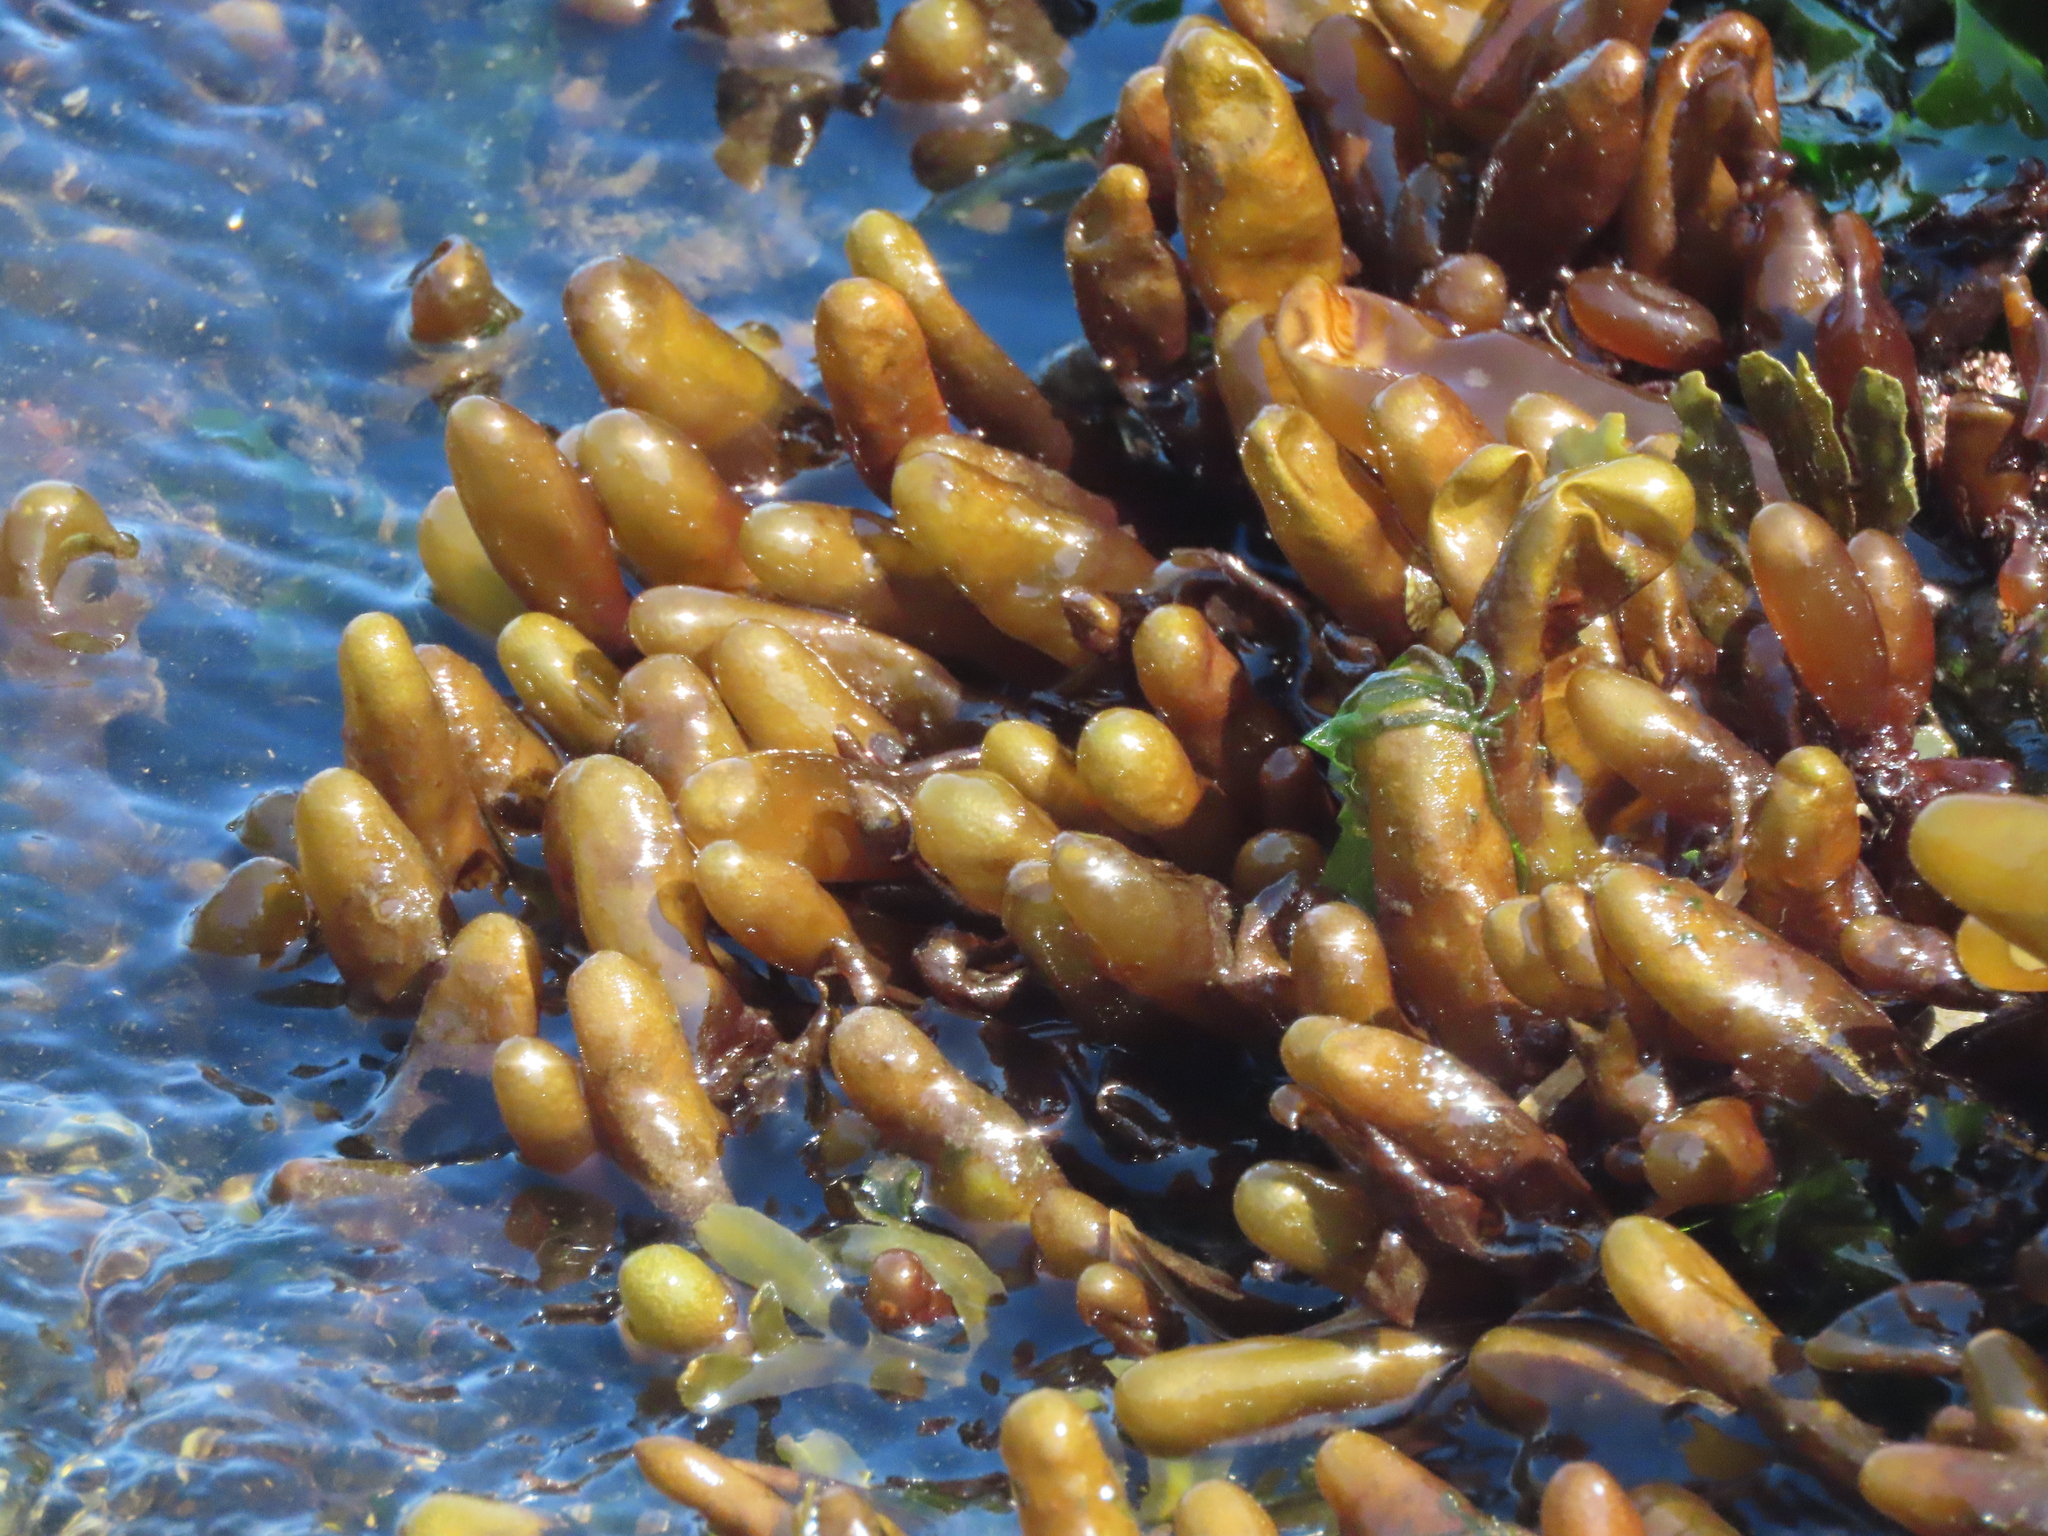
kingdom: Plantae
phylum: Rhodophyta
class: Florideophyceae
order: Palmariales
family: Palmariaceae
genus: Halosaccion
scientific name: Halosaccion glandiforme
